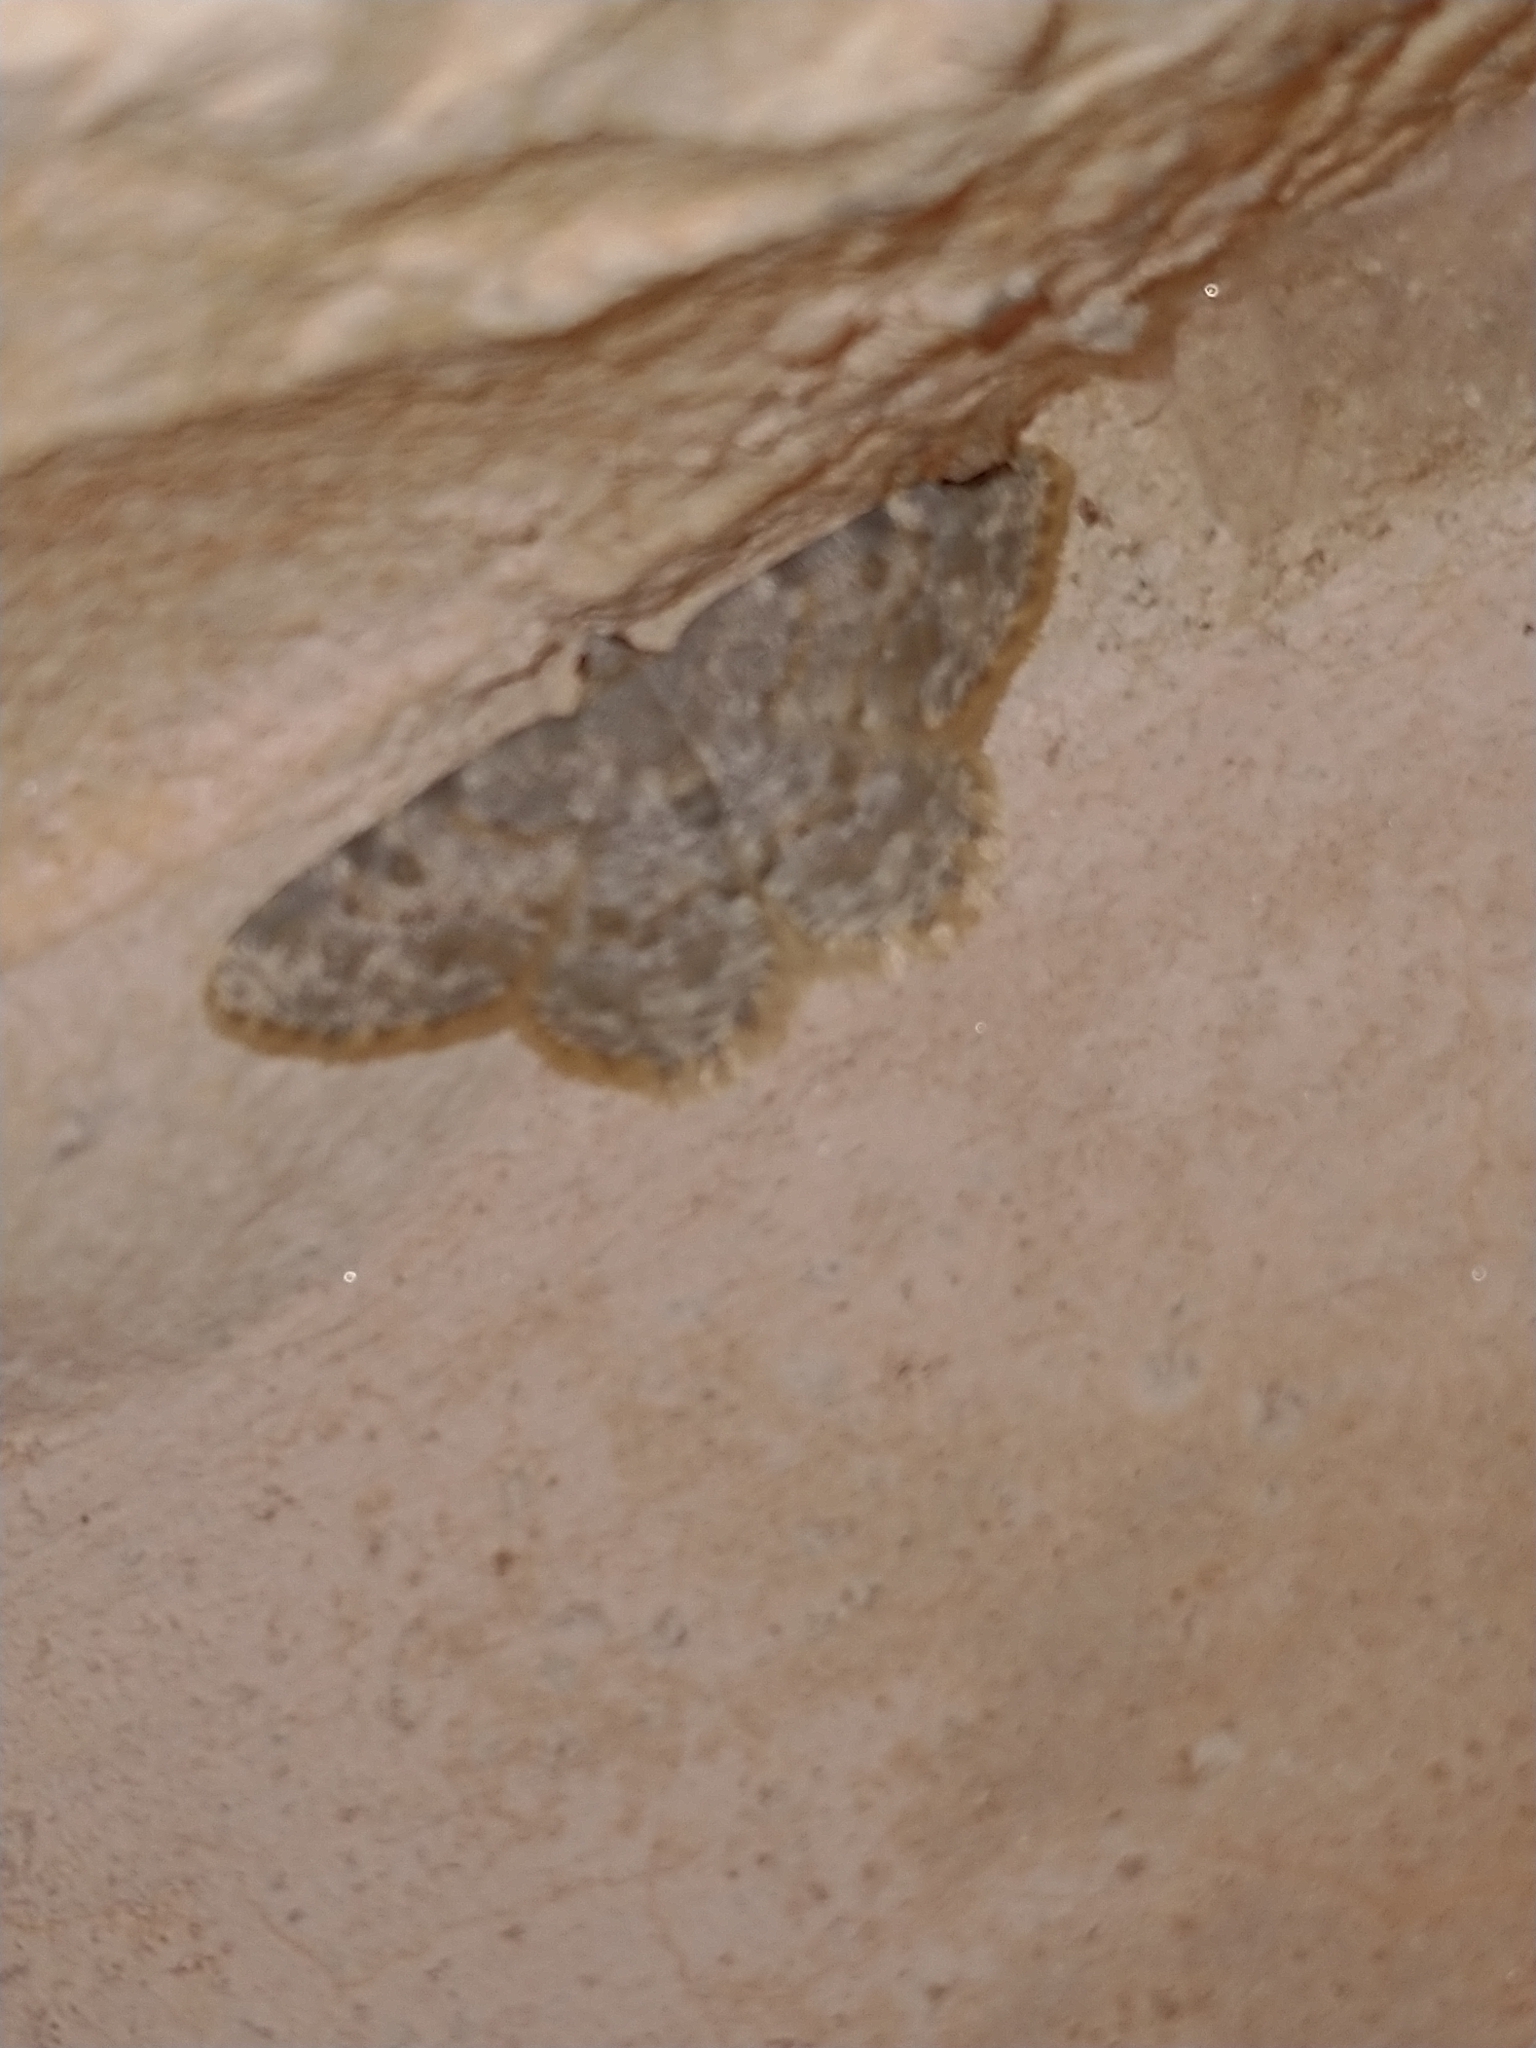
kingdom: Animalia
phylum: Arthropoda
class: Insecta
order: Lepidoptera
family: Geometridae
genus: Charissa
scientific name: Charissa variegata
